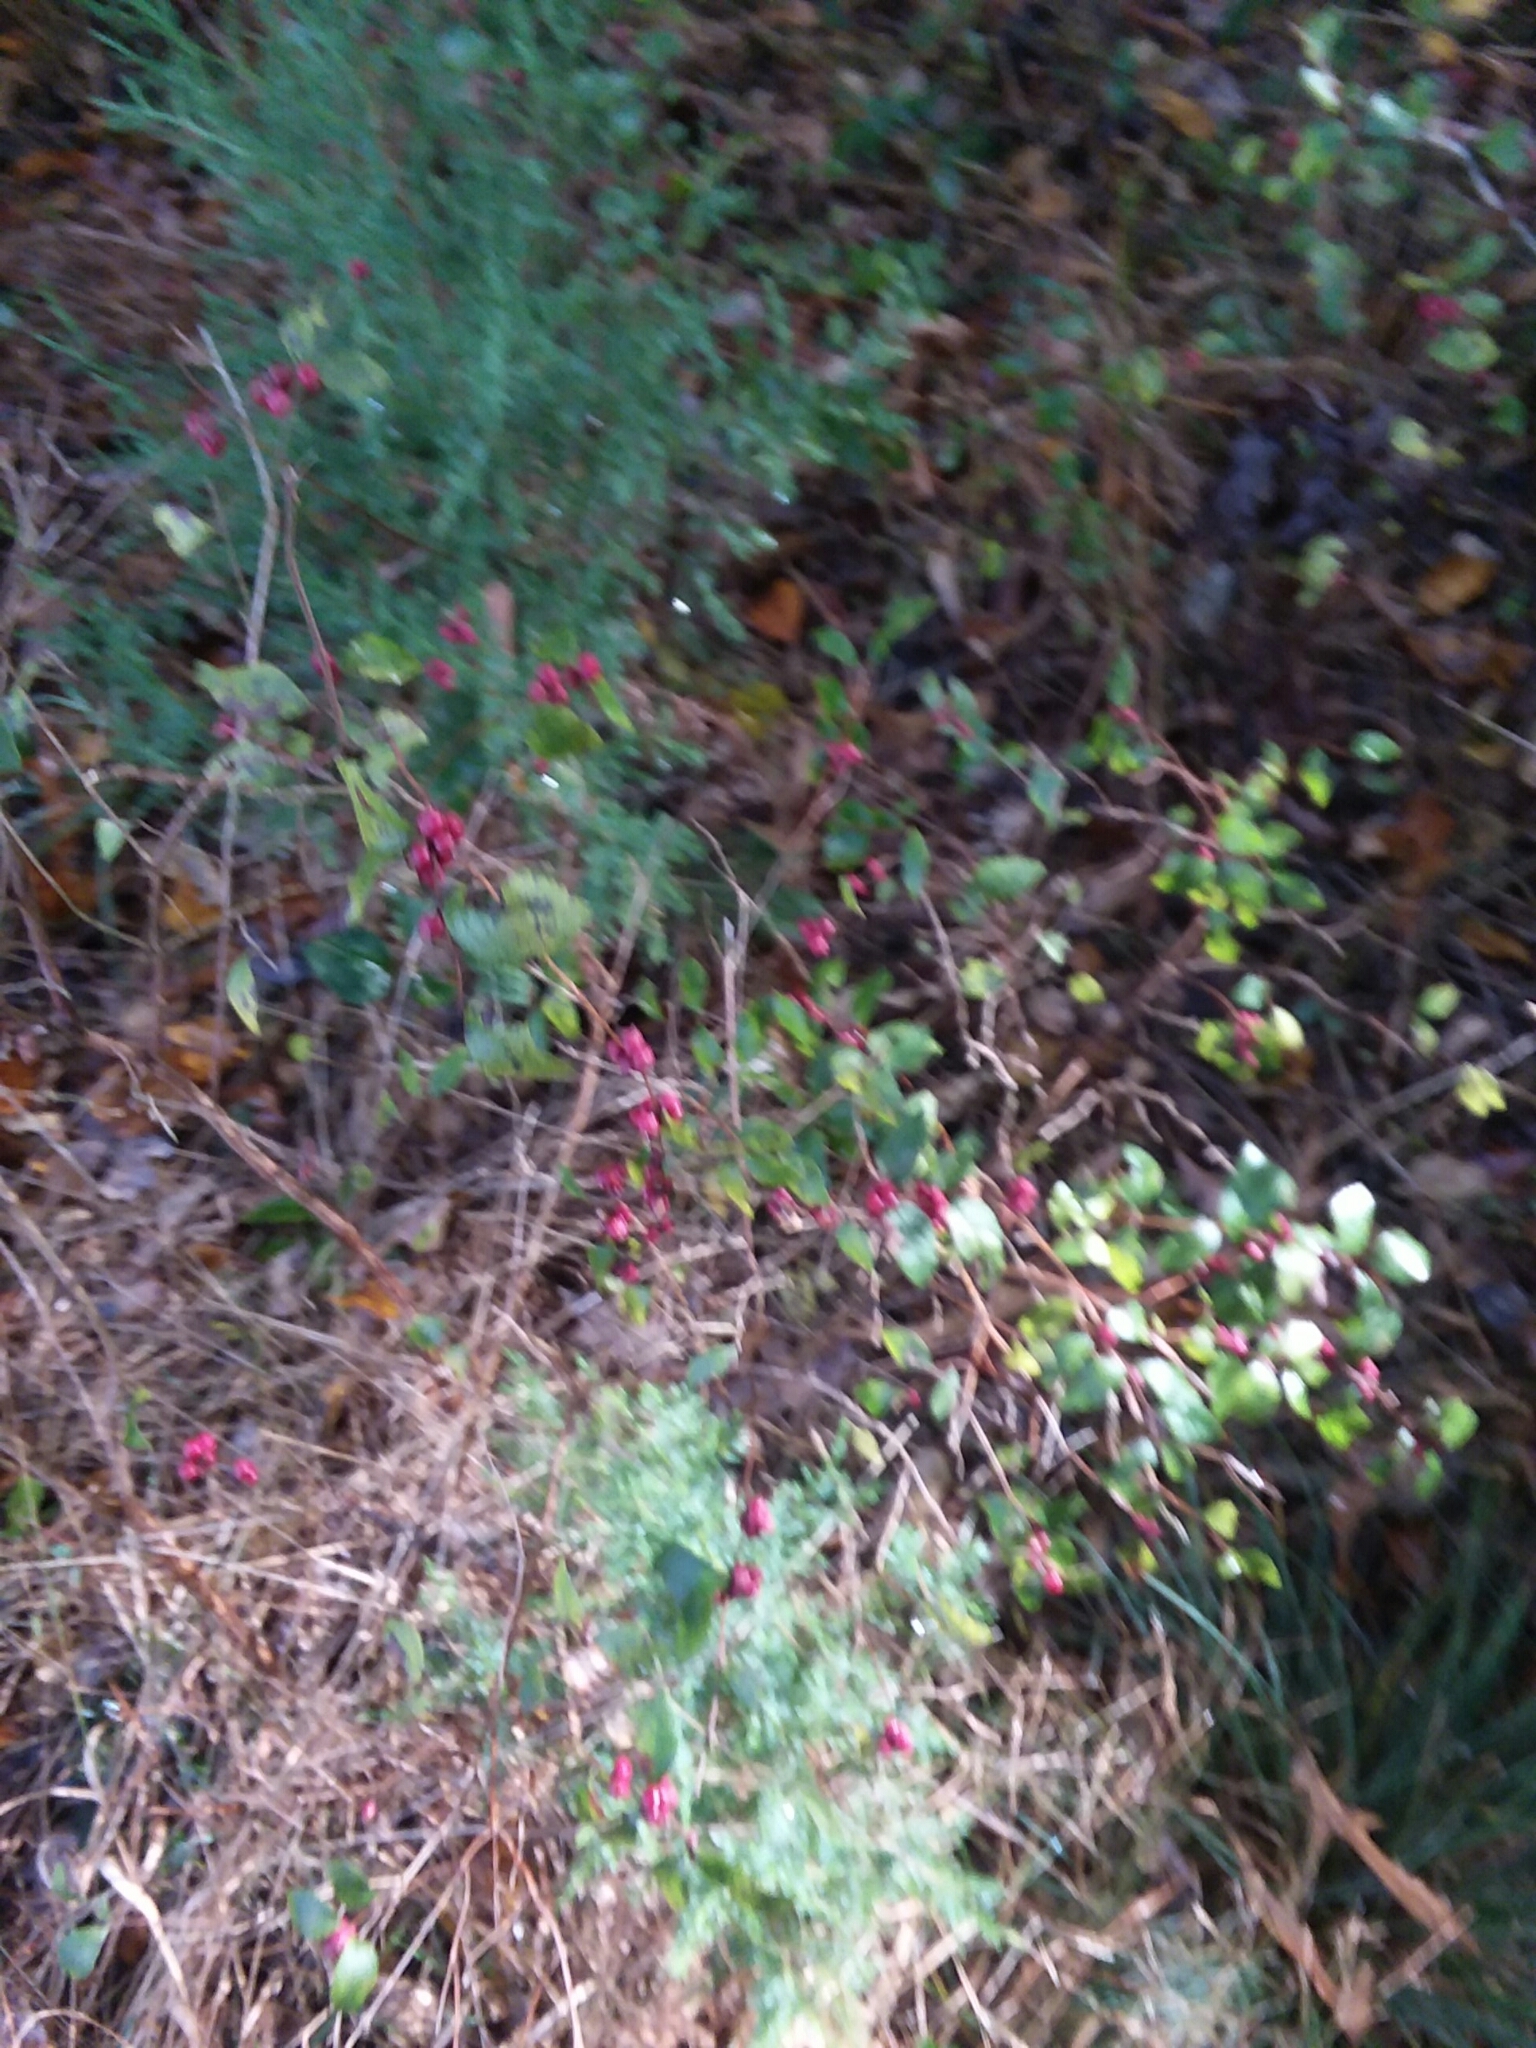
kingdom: Plantae
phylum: Tracheophyta
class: Magnoliopsida
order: Dipsacales
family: Caprifoliaceae
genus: Symphoricarpos
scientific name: Symphoricarpos orbiculatus
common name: Coralberry
